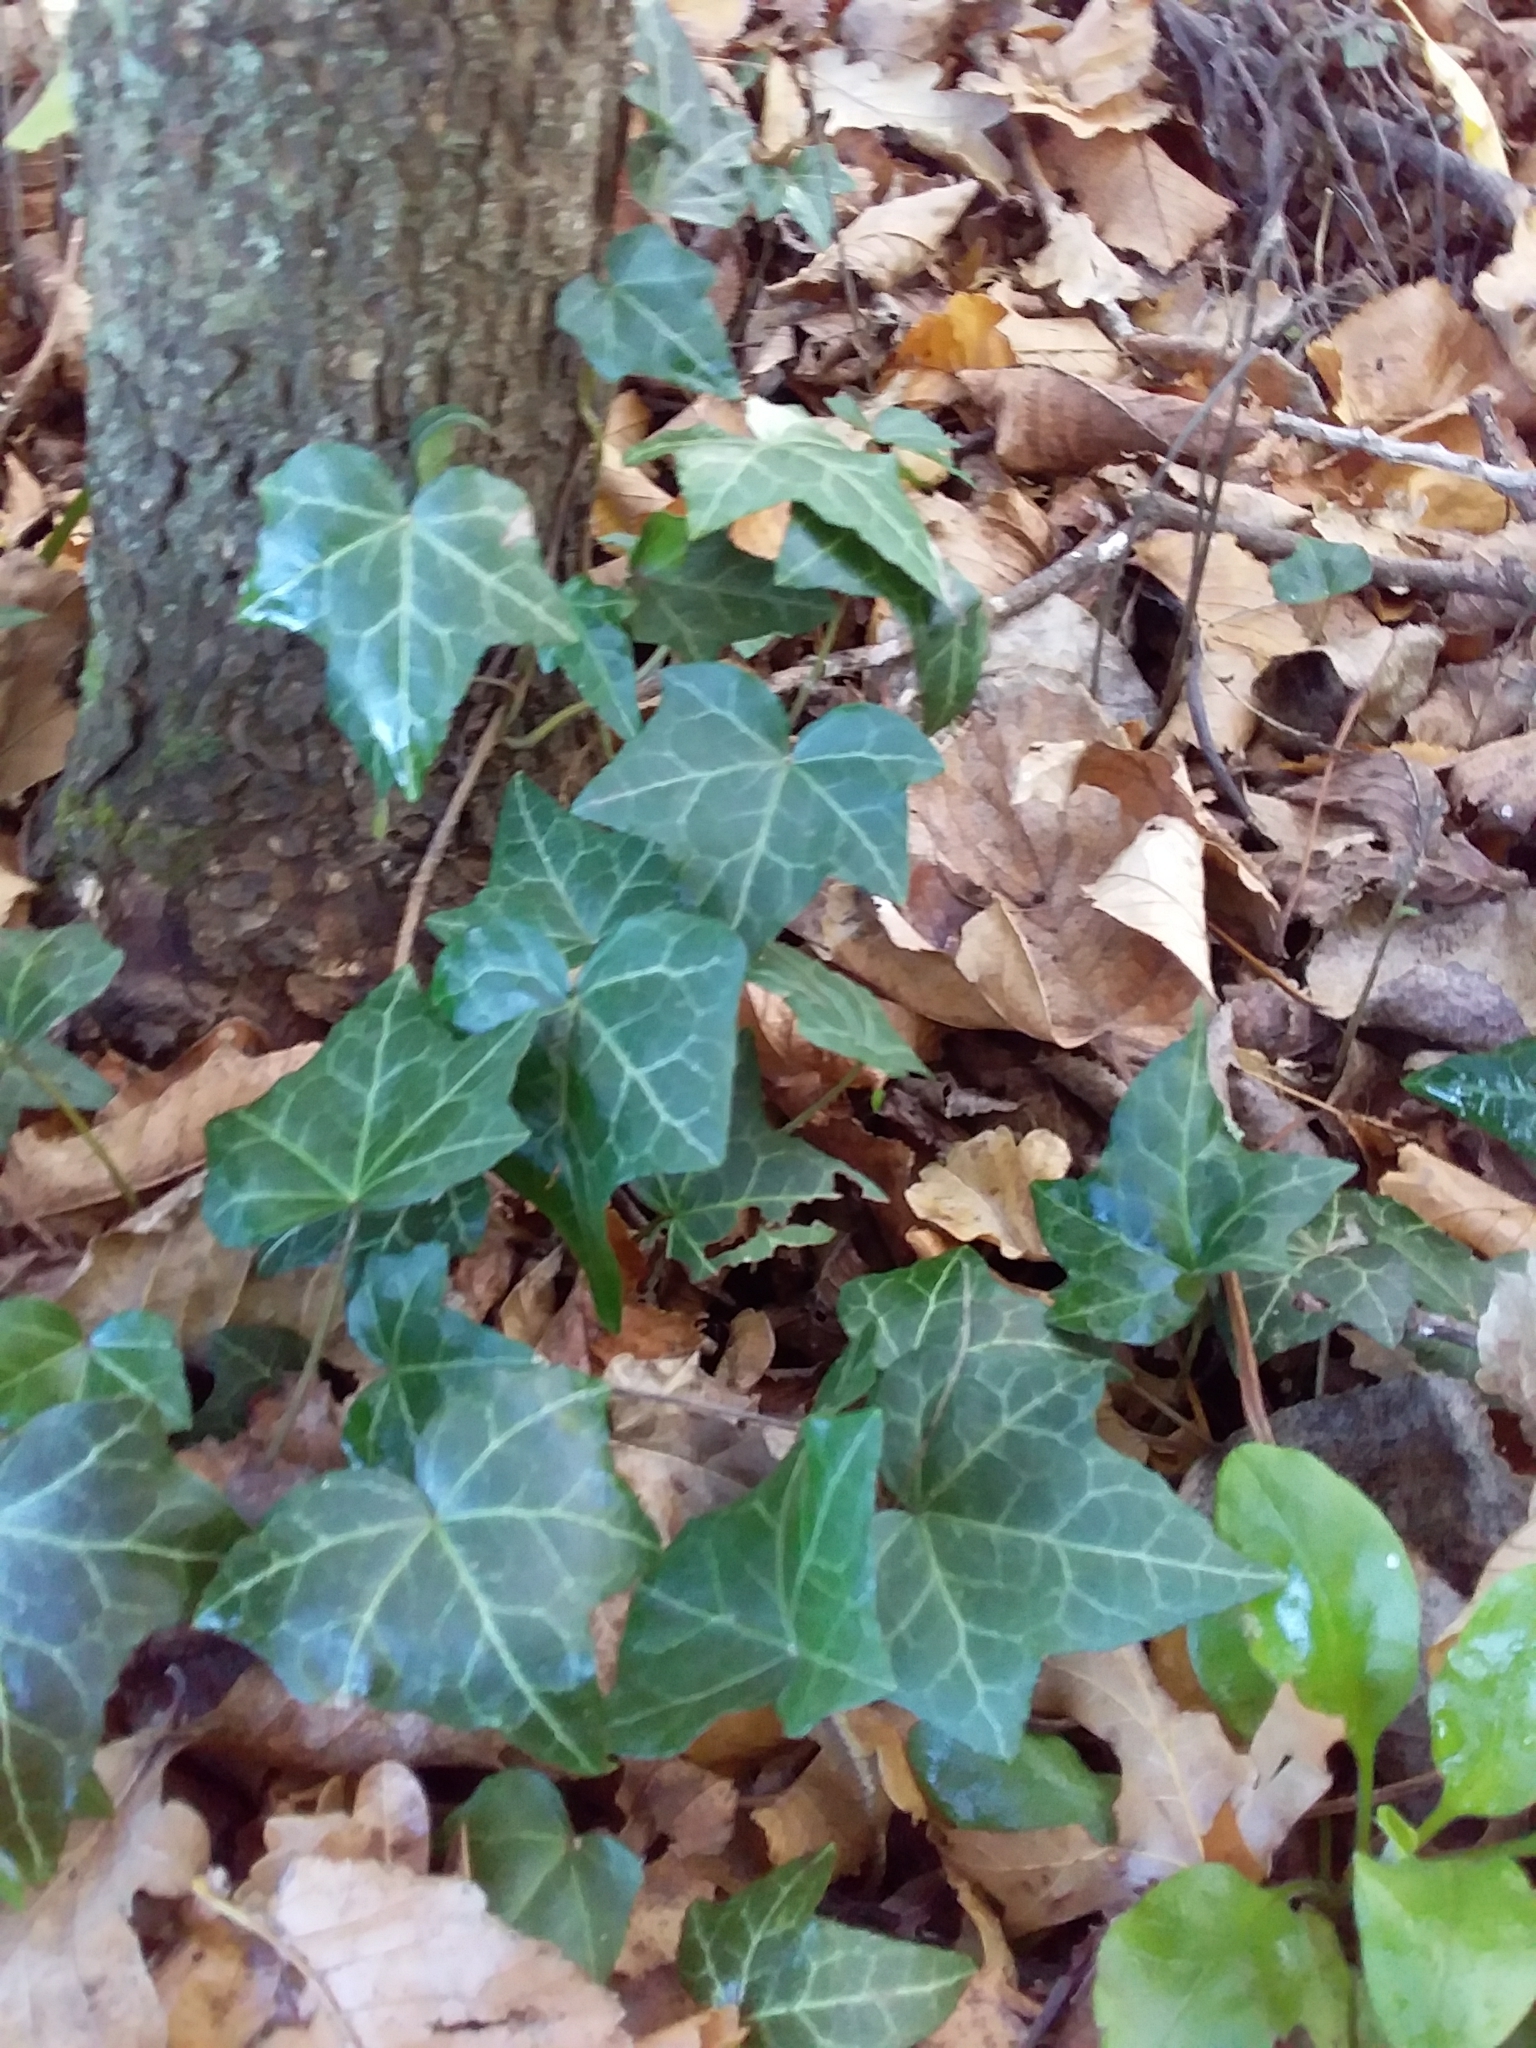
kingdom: Plantae
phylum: Tracheophyta
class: Magnoliopsida
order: Apiales
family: Araliaceae
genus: Hedera
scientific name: Hedera helix
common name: Ivy
